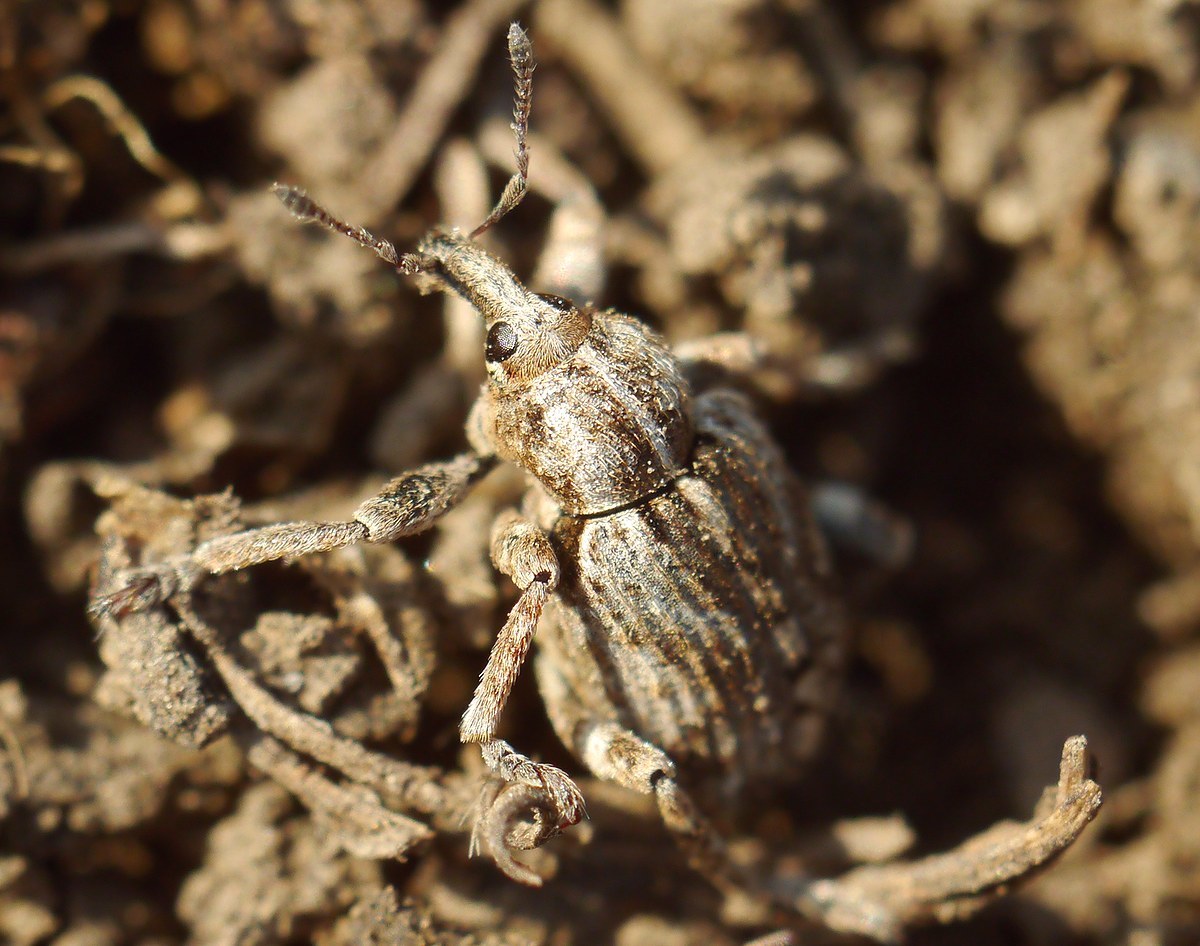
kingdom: Animalia
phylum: Arthropoda
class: Insecta
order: Coleoptera
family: Curculionidae
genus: Brachypera
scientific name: Brachypera dauci
